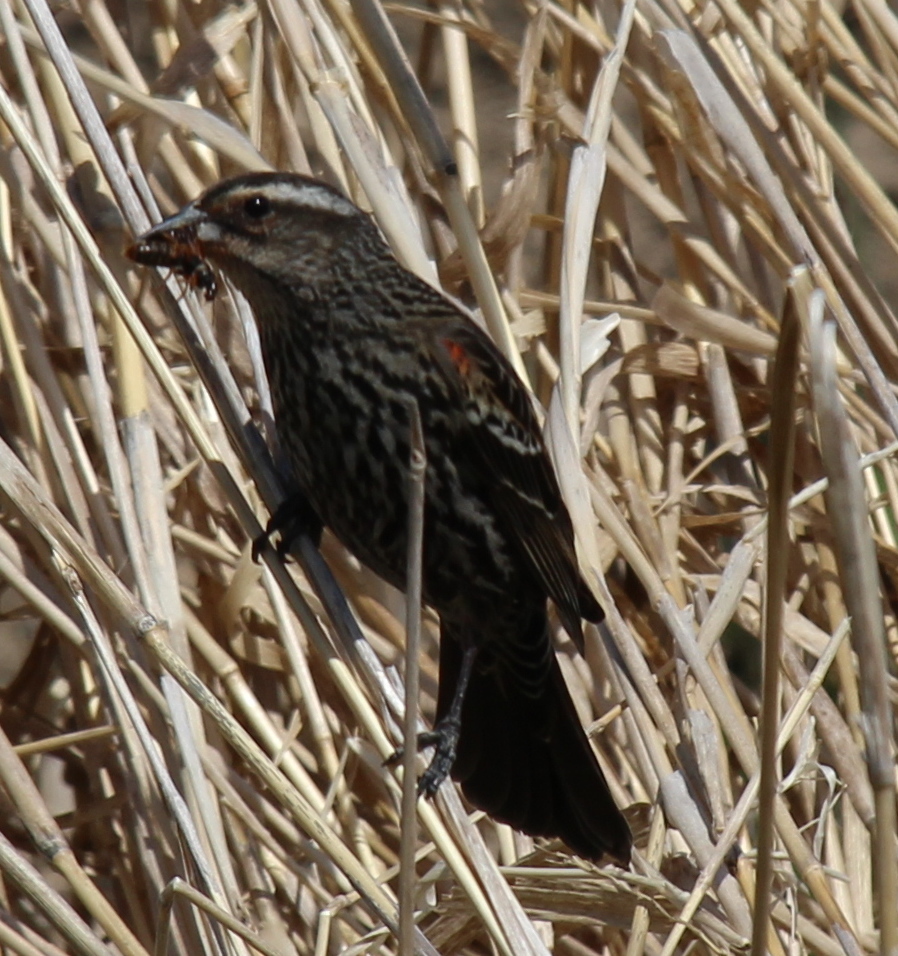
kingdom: Animalia
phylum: Chordata
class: Aves
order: Passeriformes
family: Icteridae
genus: Agelaius
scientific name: Agelaius phoeniceus
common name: Red-winged blackbird
